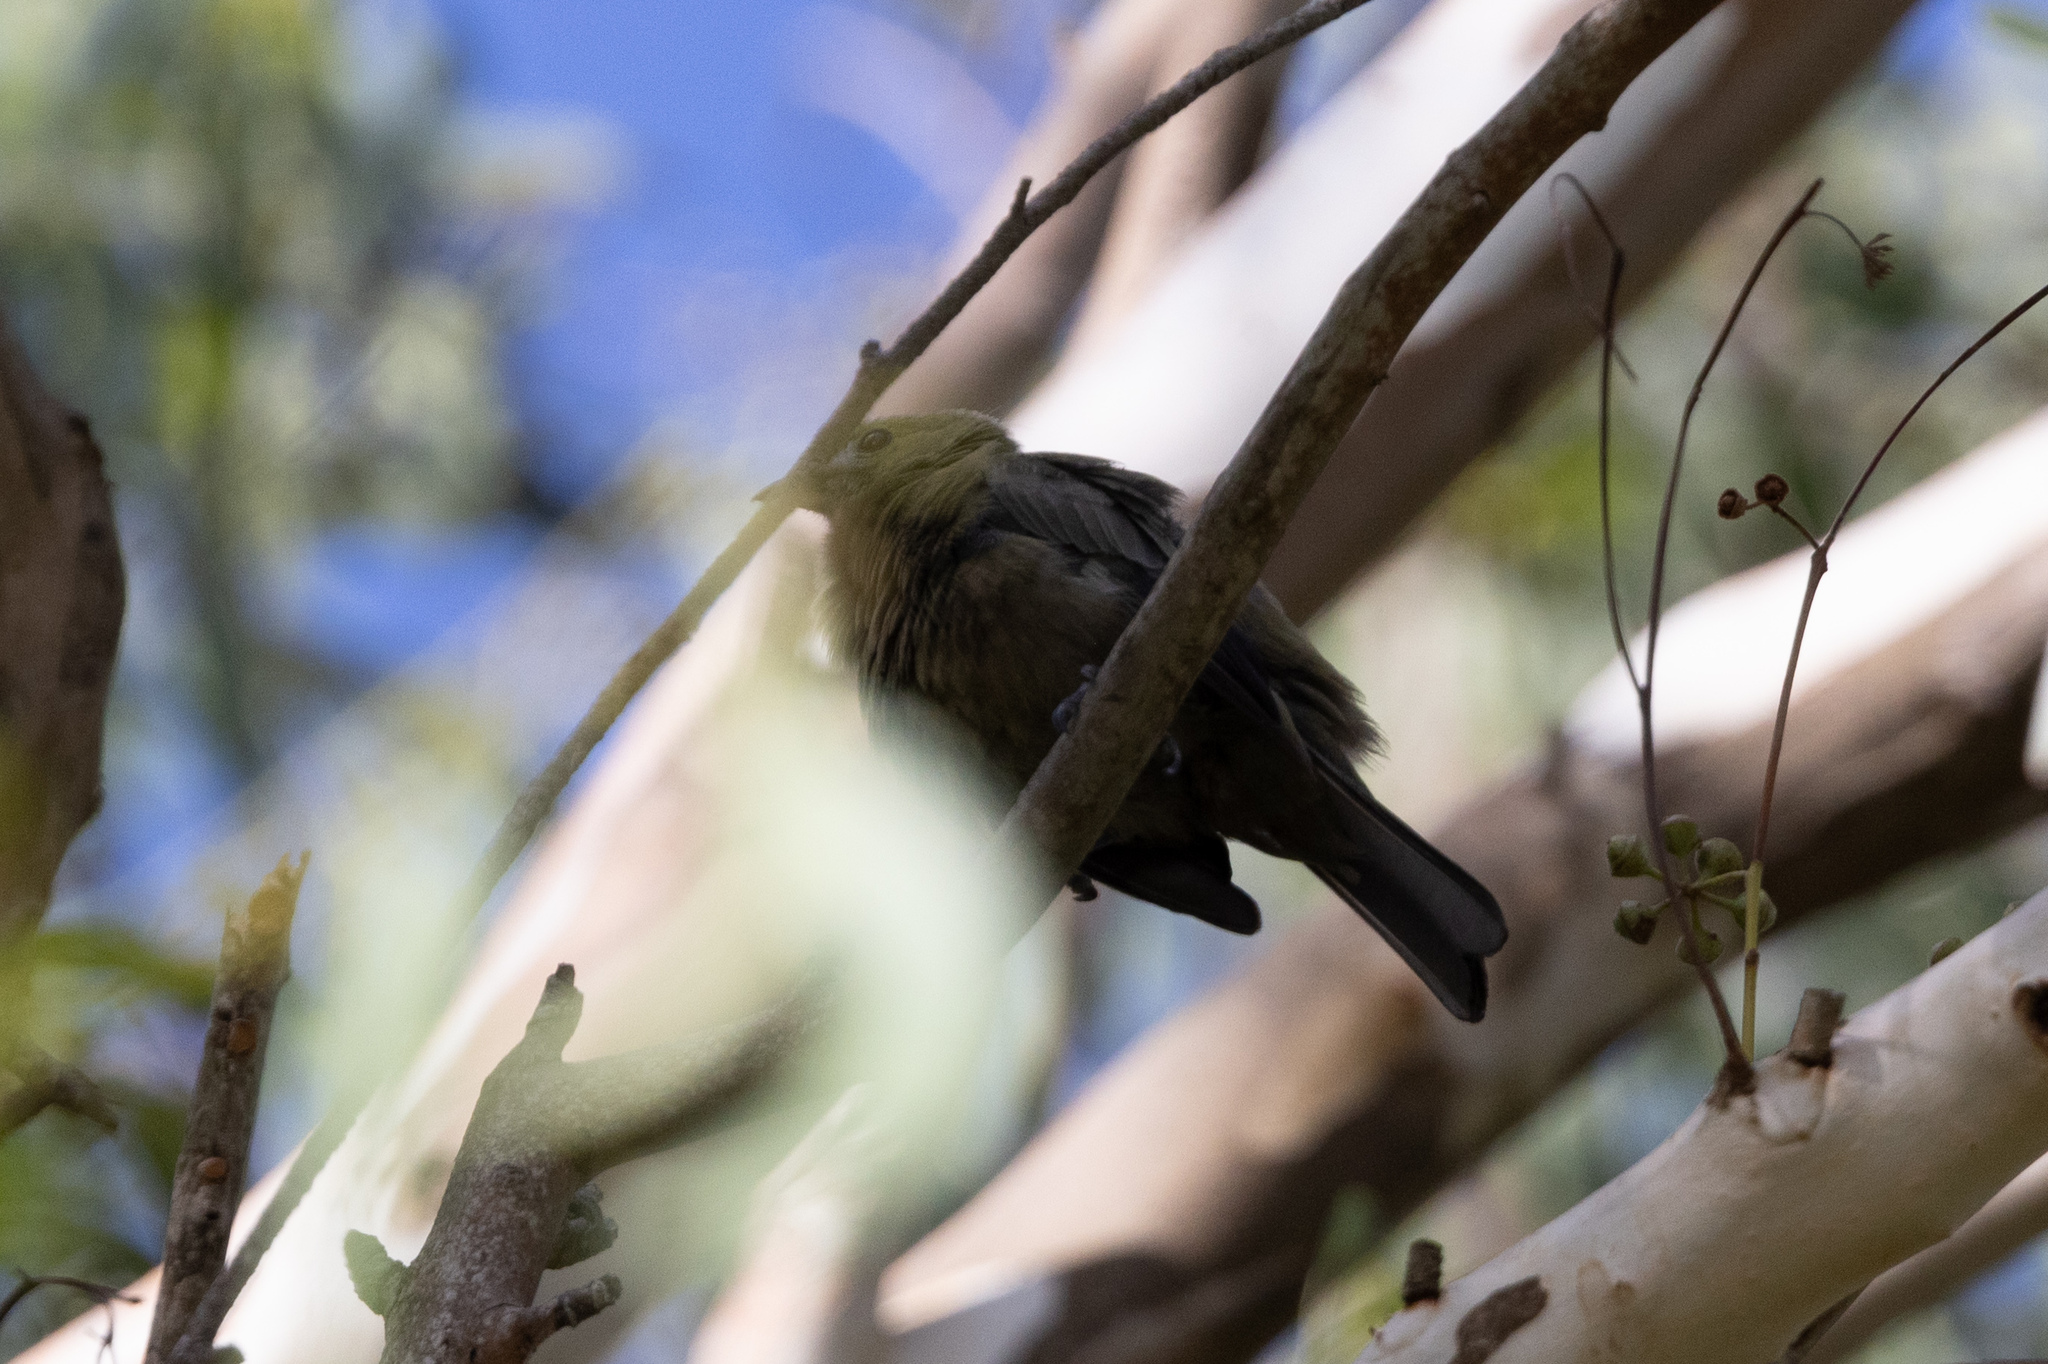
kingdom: Animalia
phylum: Chordata
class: Aves
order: Passeriformes
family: Thraupidae
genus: Thraupis
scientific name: Thraupis palmarum
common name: Palm tanager
